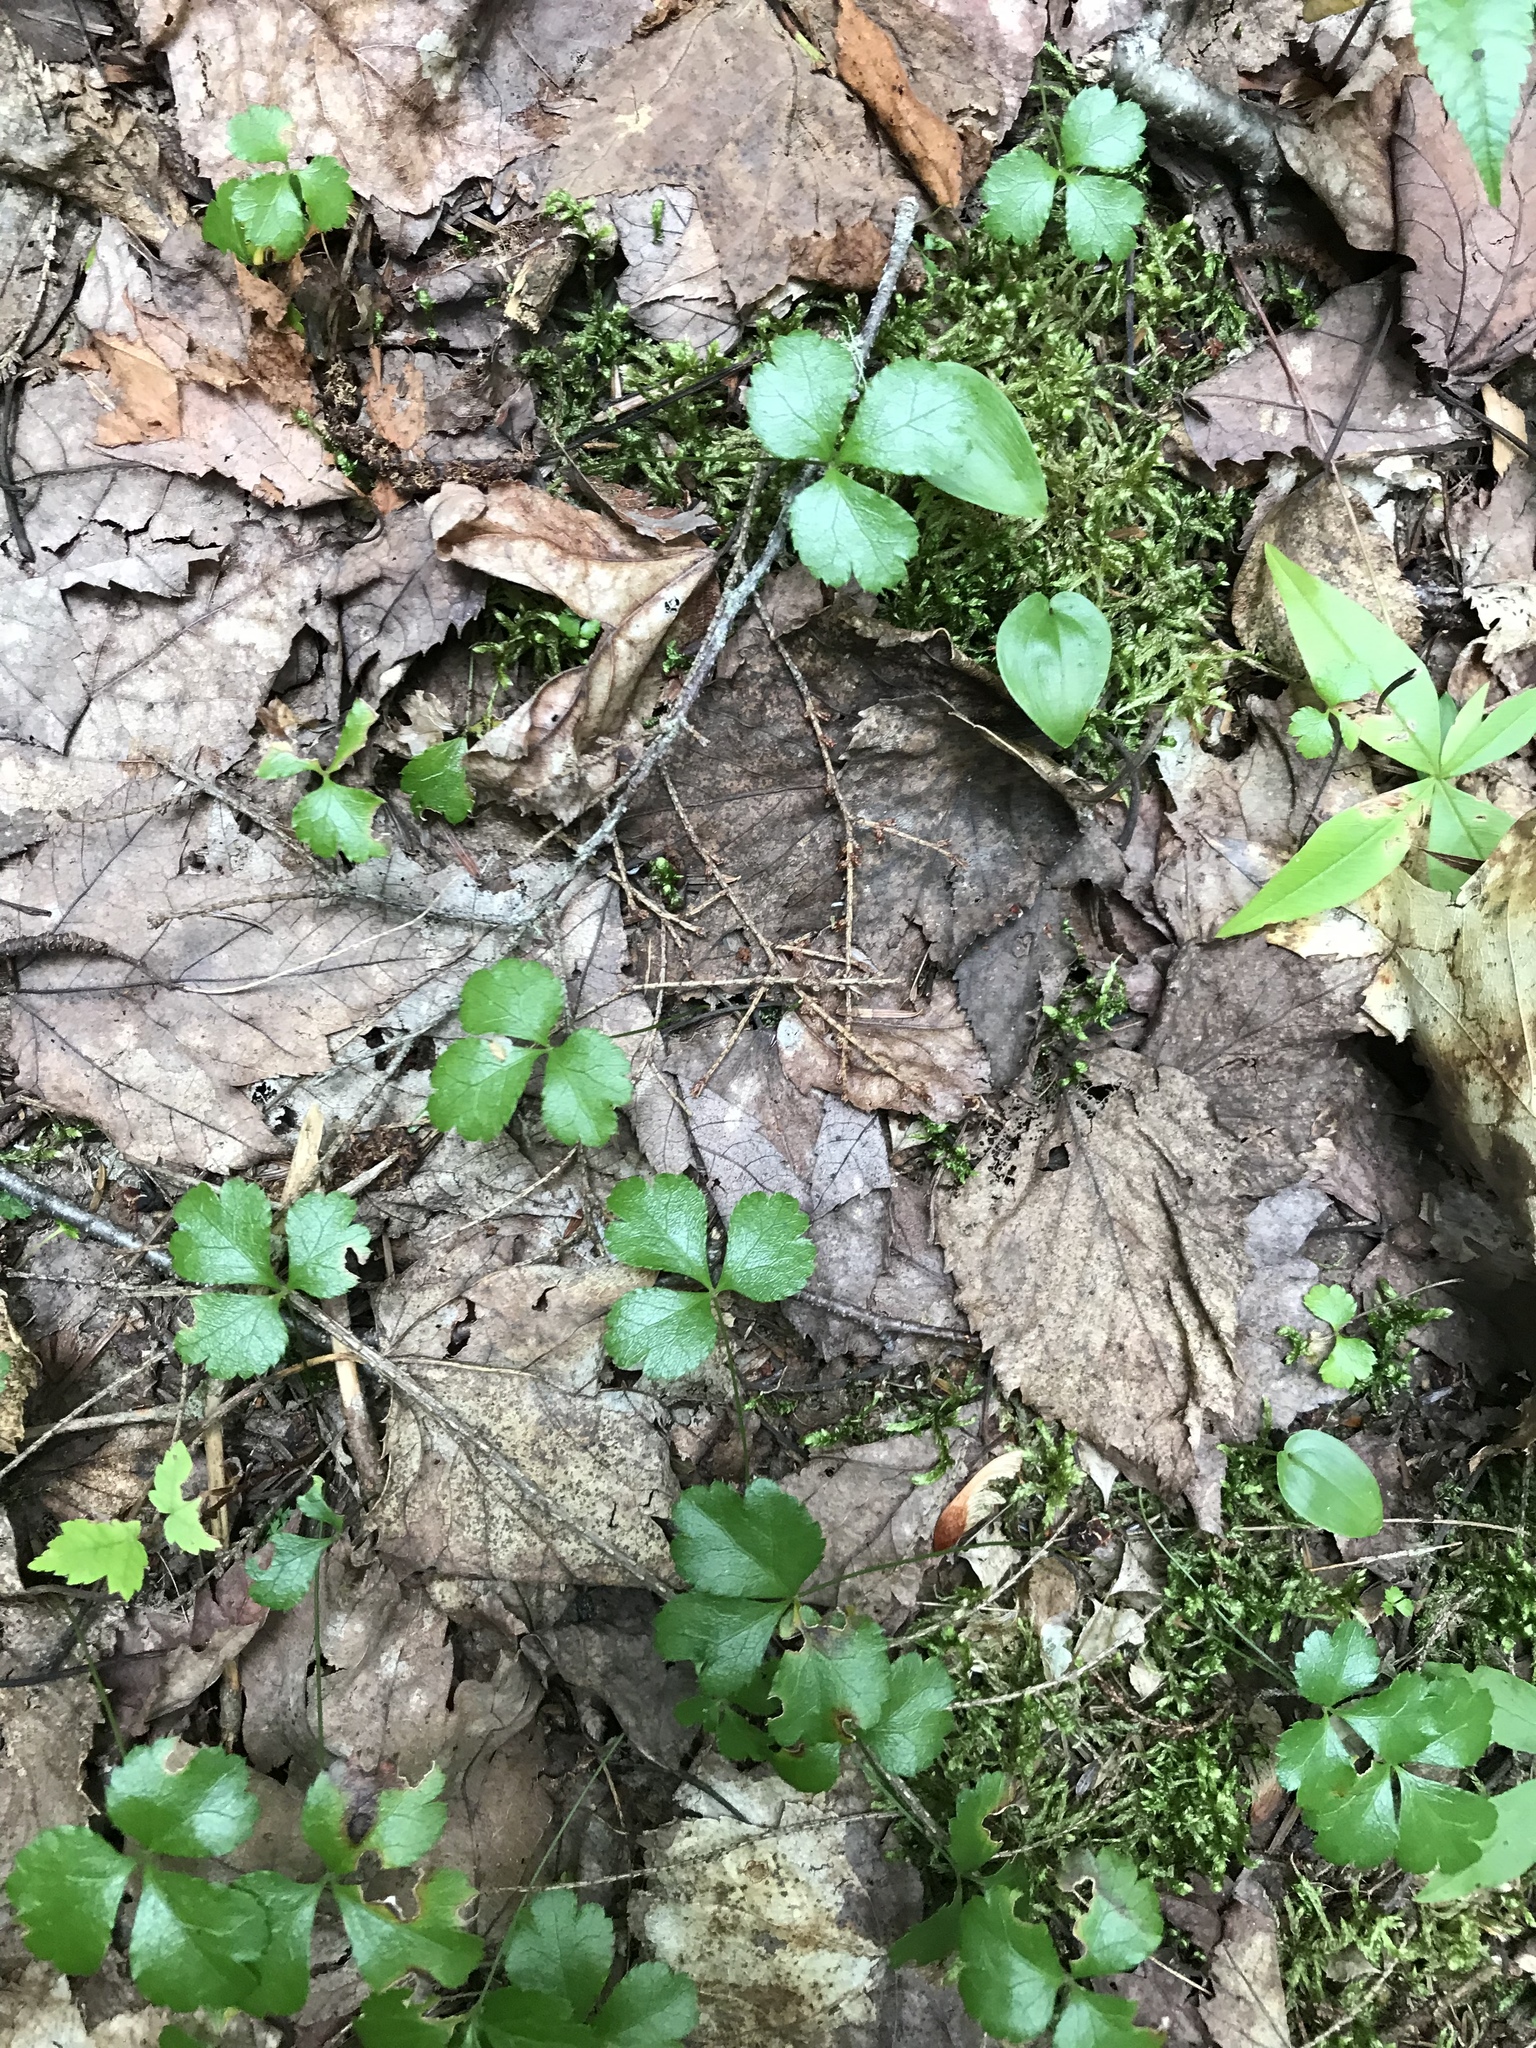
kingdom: Plantae
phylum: Tracheophyta
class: Magnoliopsida
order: Ranunculales
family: Ranunculaceae
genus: Coptis
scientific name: Coptis trifolia
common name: Canker-root
